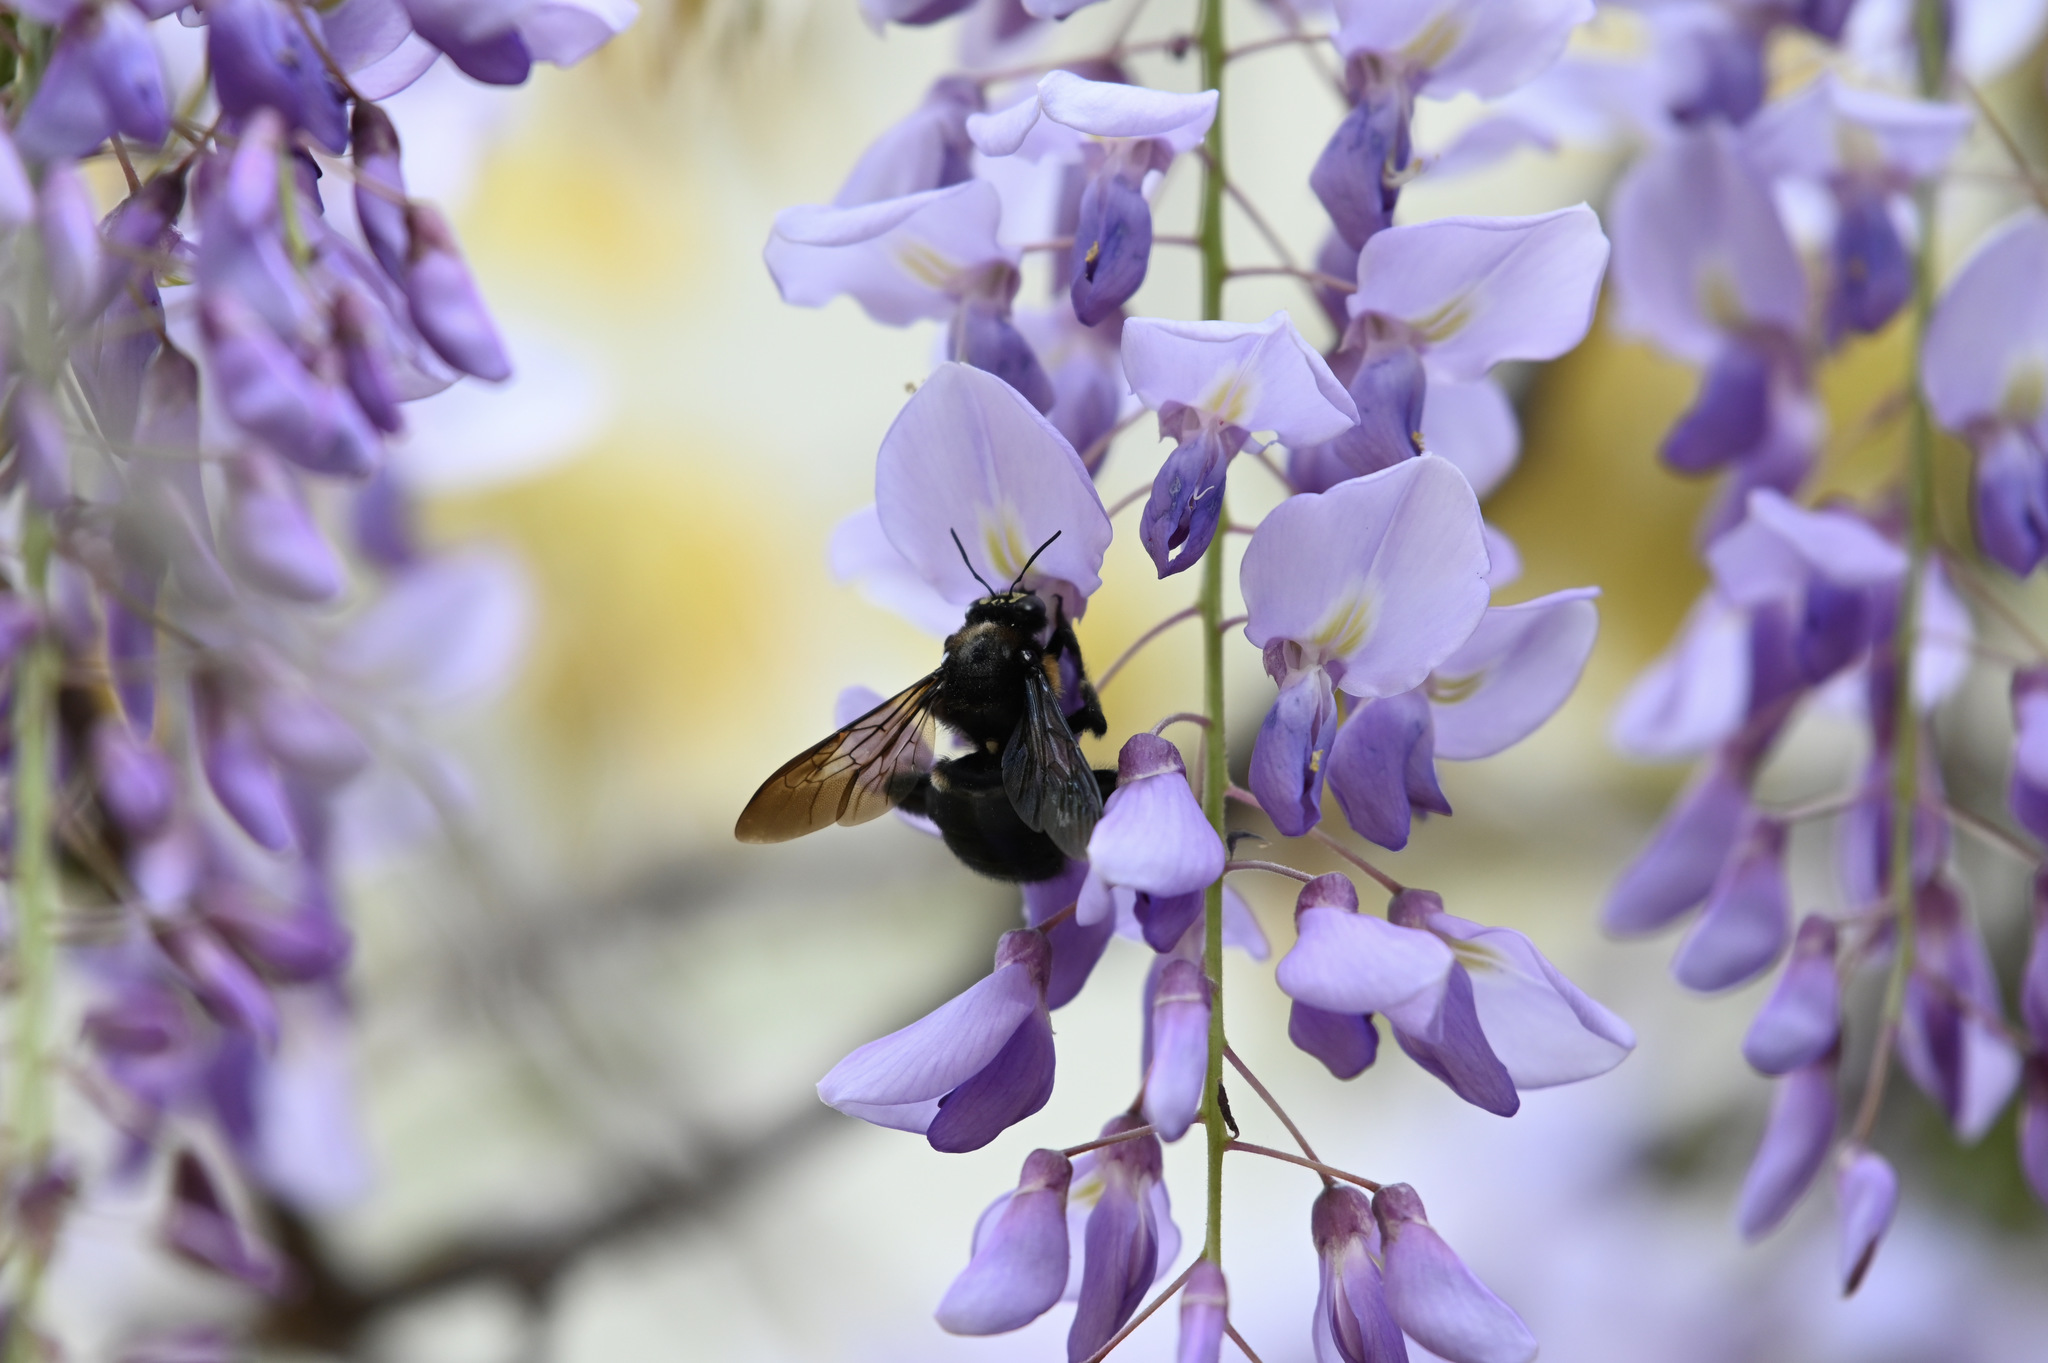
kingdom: Animalia
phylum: Arthropoda
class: Insecta
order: Hymenoptera
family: Apidae
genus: Xylocopa
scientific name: Xylocopa tranquebarorum
